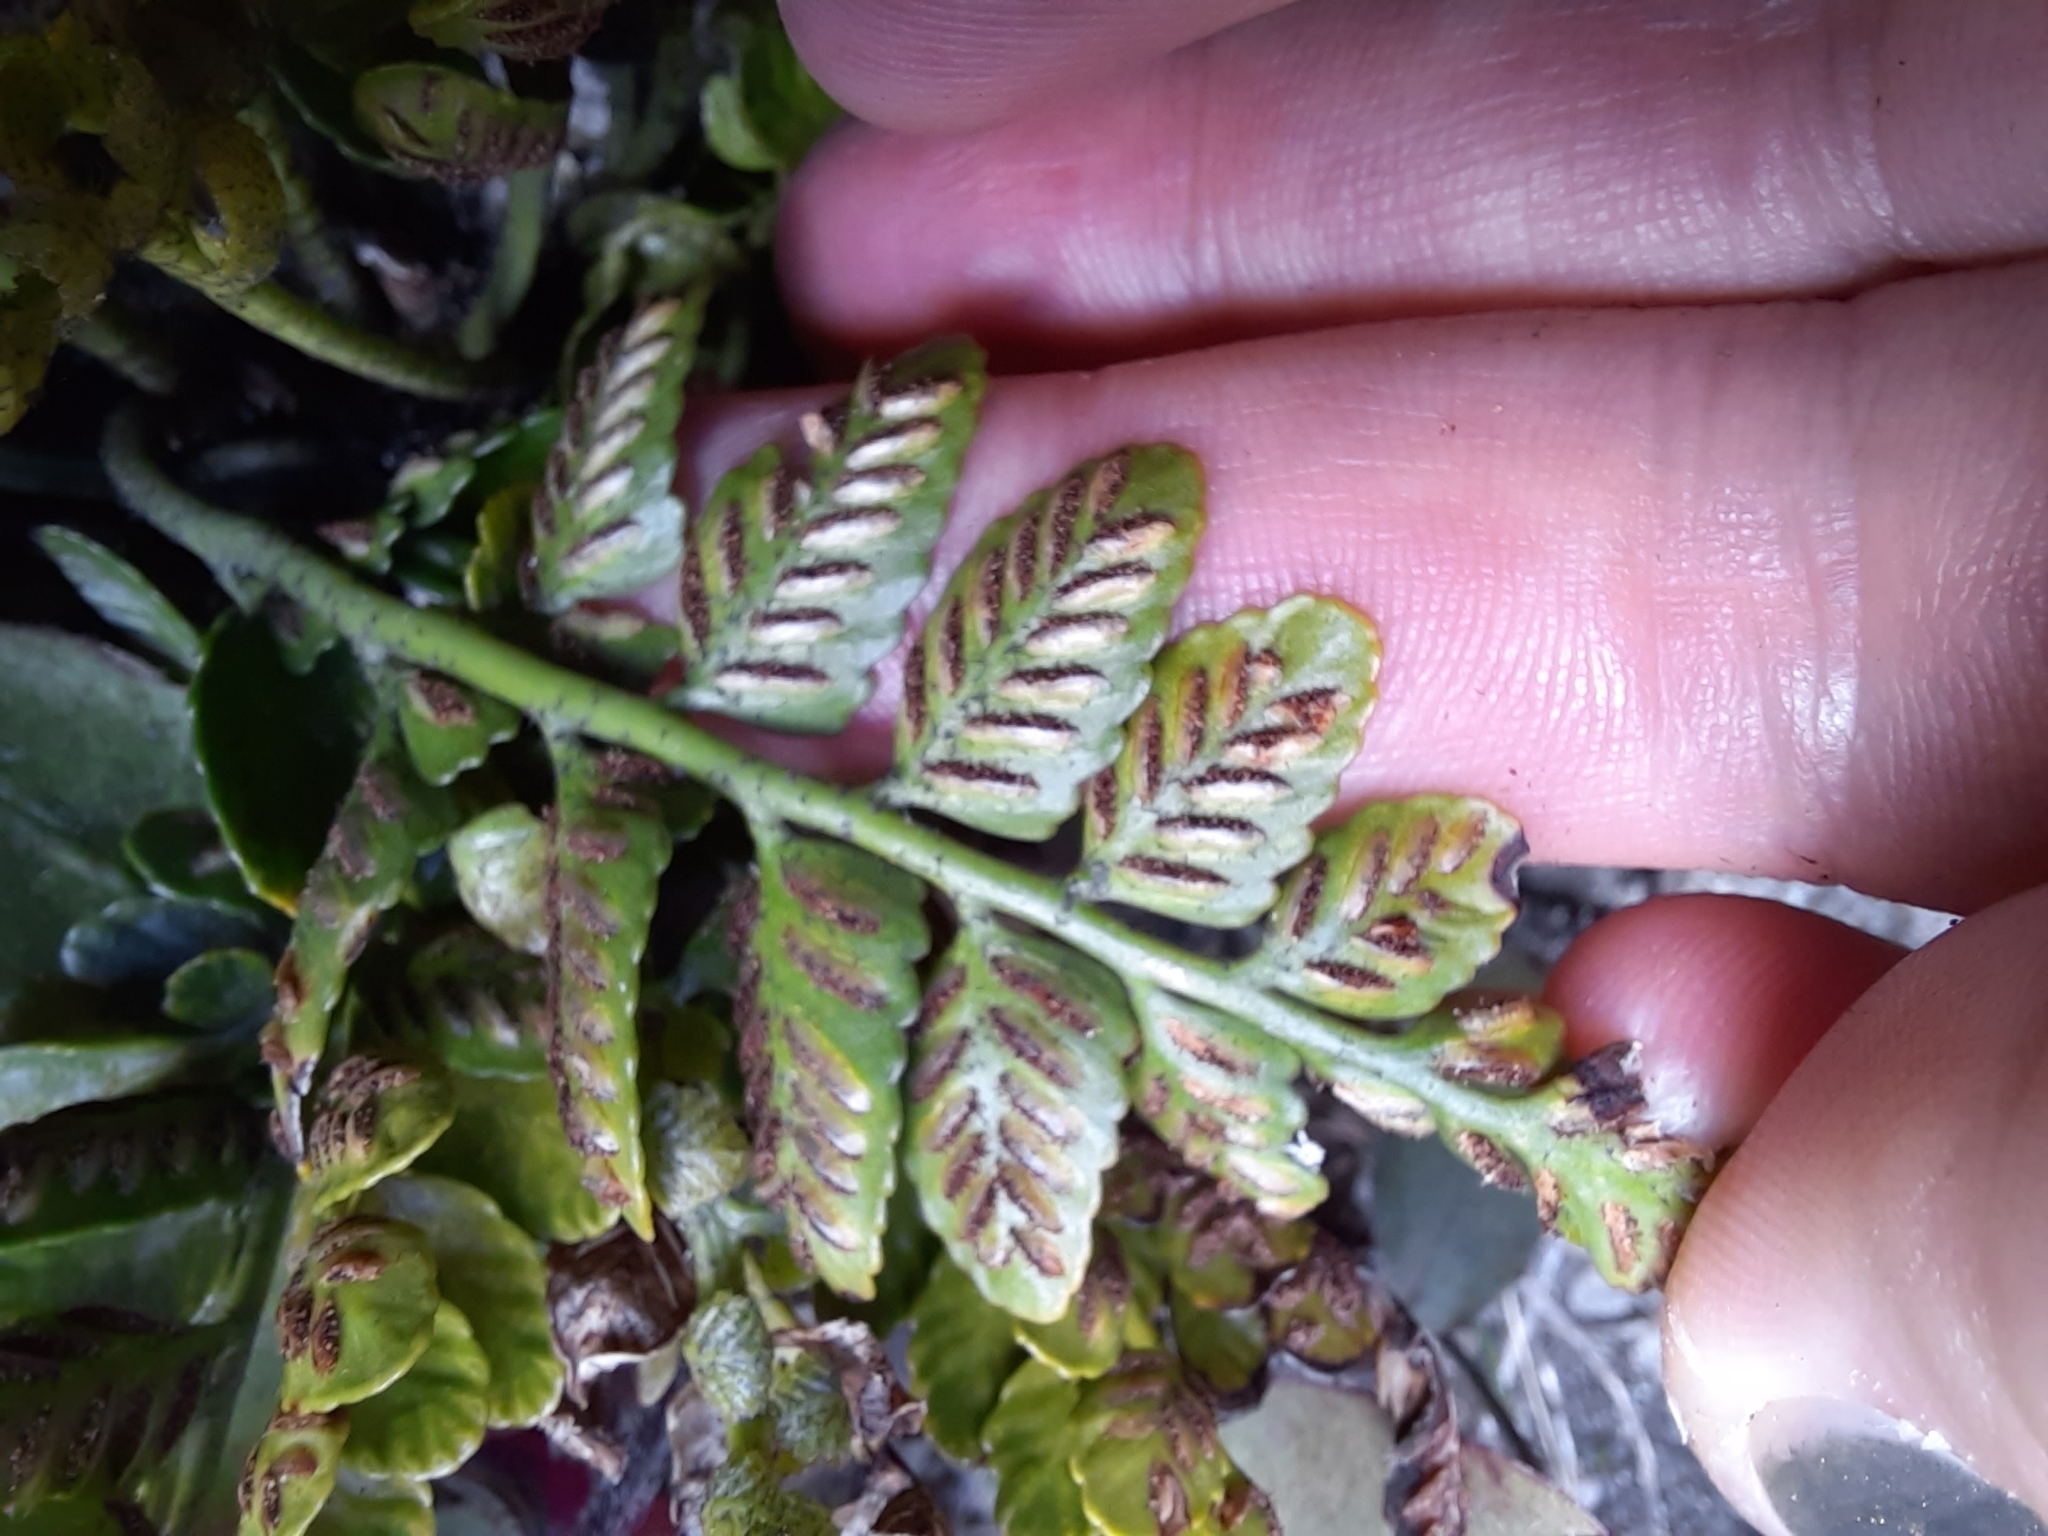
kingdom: Plantae
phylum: Tracheophyta
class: Polypodiopsida
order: Polypodiales
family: Aspleniaceae
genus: Asplenium
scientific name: Asplenium lyallii
